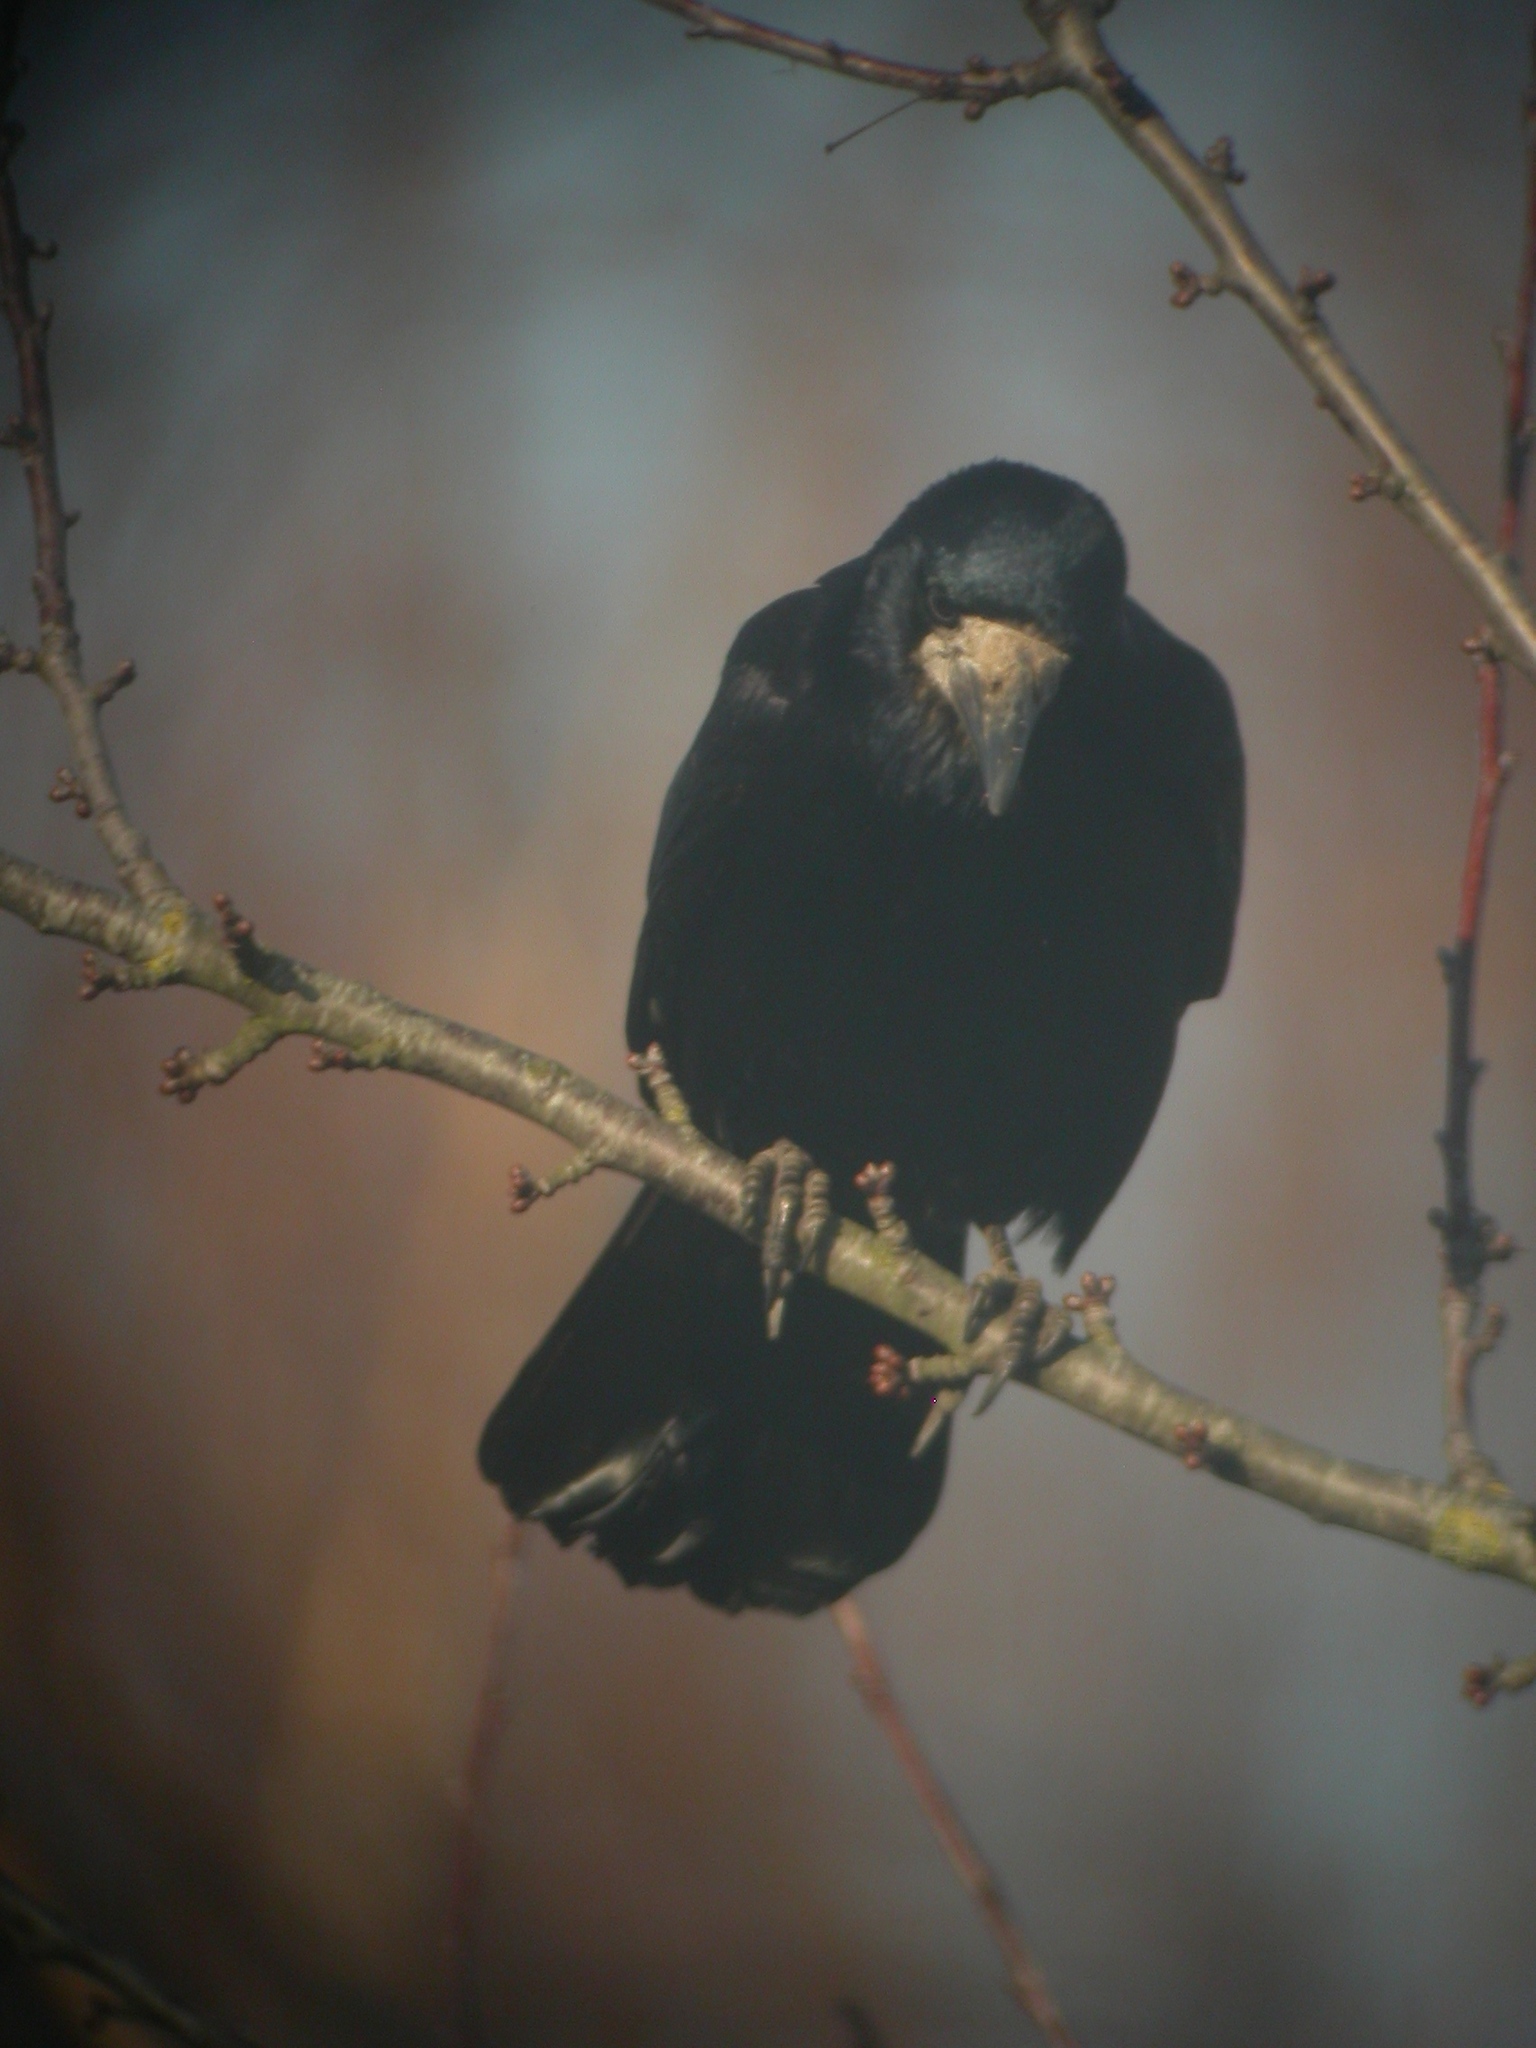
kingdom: Animalia
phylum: Chordata
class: Aves
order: Passeriformes
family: Corvidae
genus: Corvus
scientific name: Corvus frugilegus
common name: Rook
